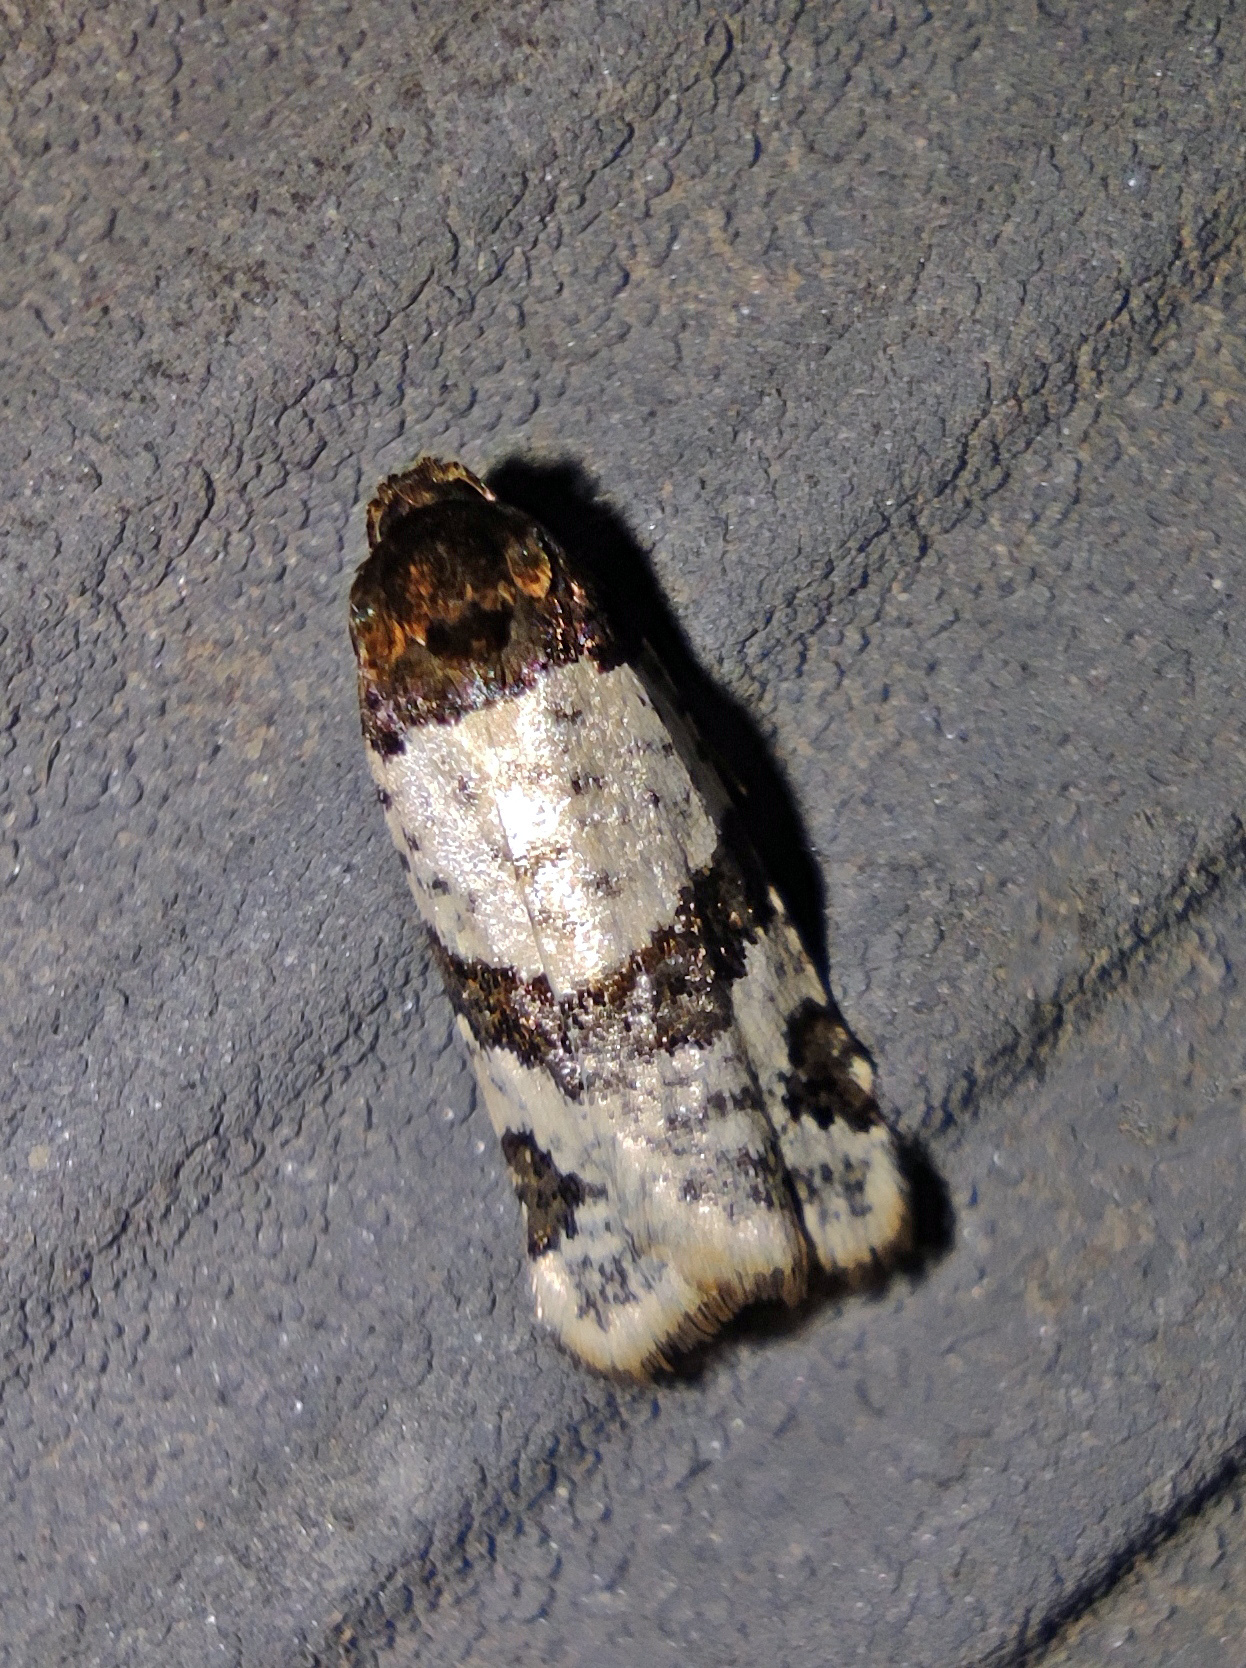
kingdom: Animalia
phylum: Arthropoda
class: Insecta
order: Lepidoptera
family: Tortricidae
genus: Periclepsis
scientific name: Periclepsis cinctana
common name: Dover twist
